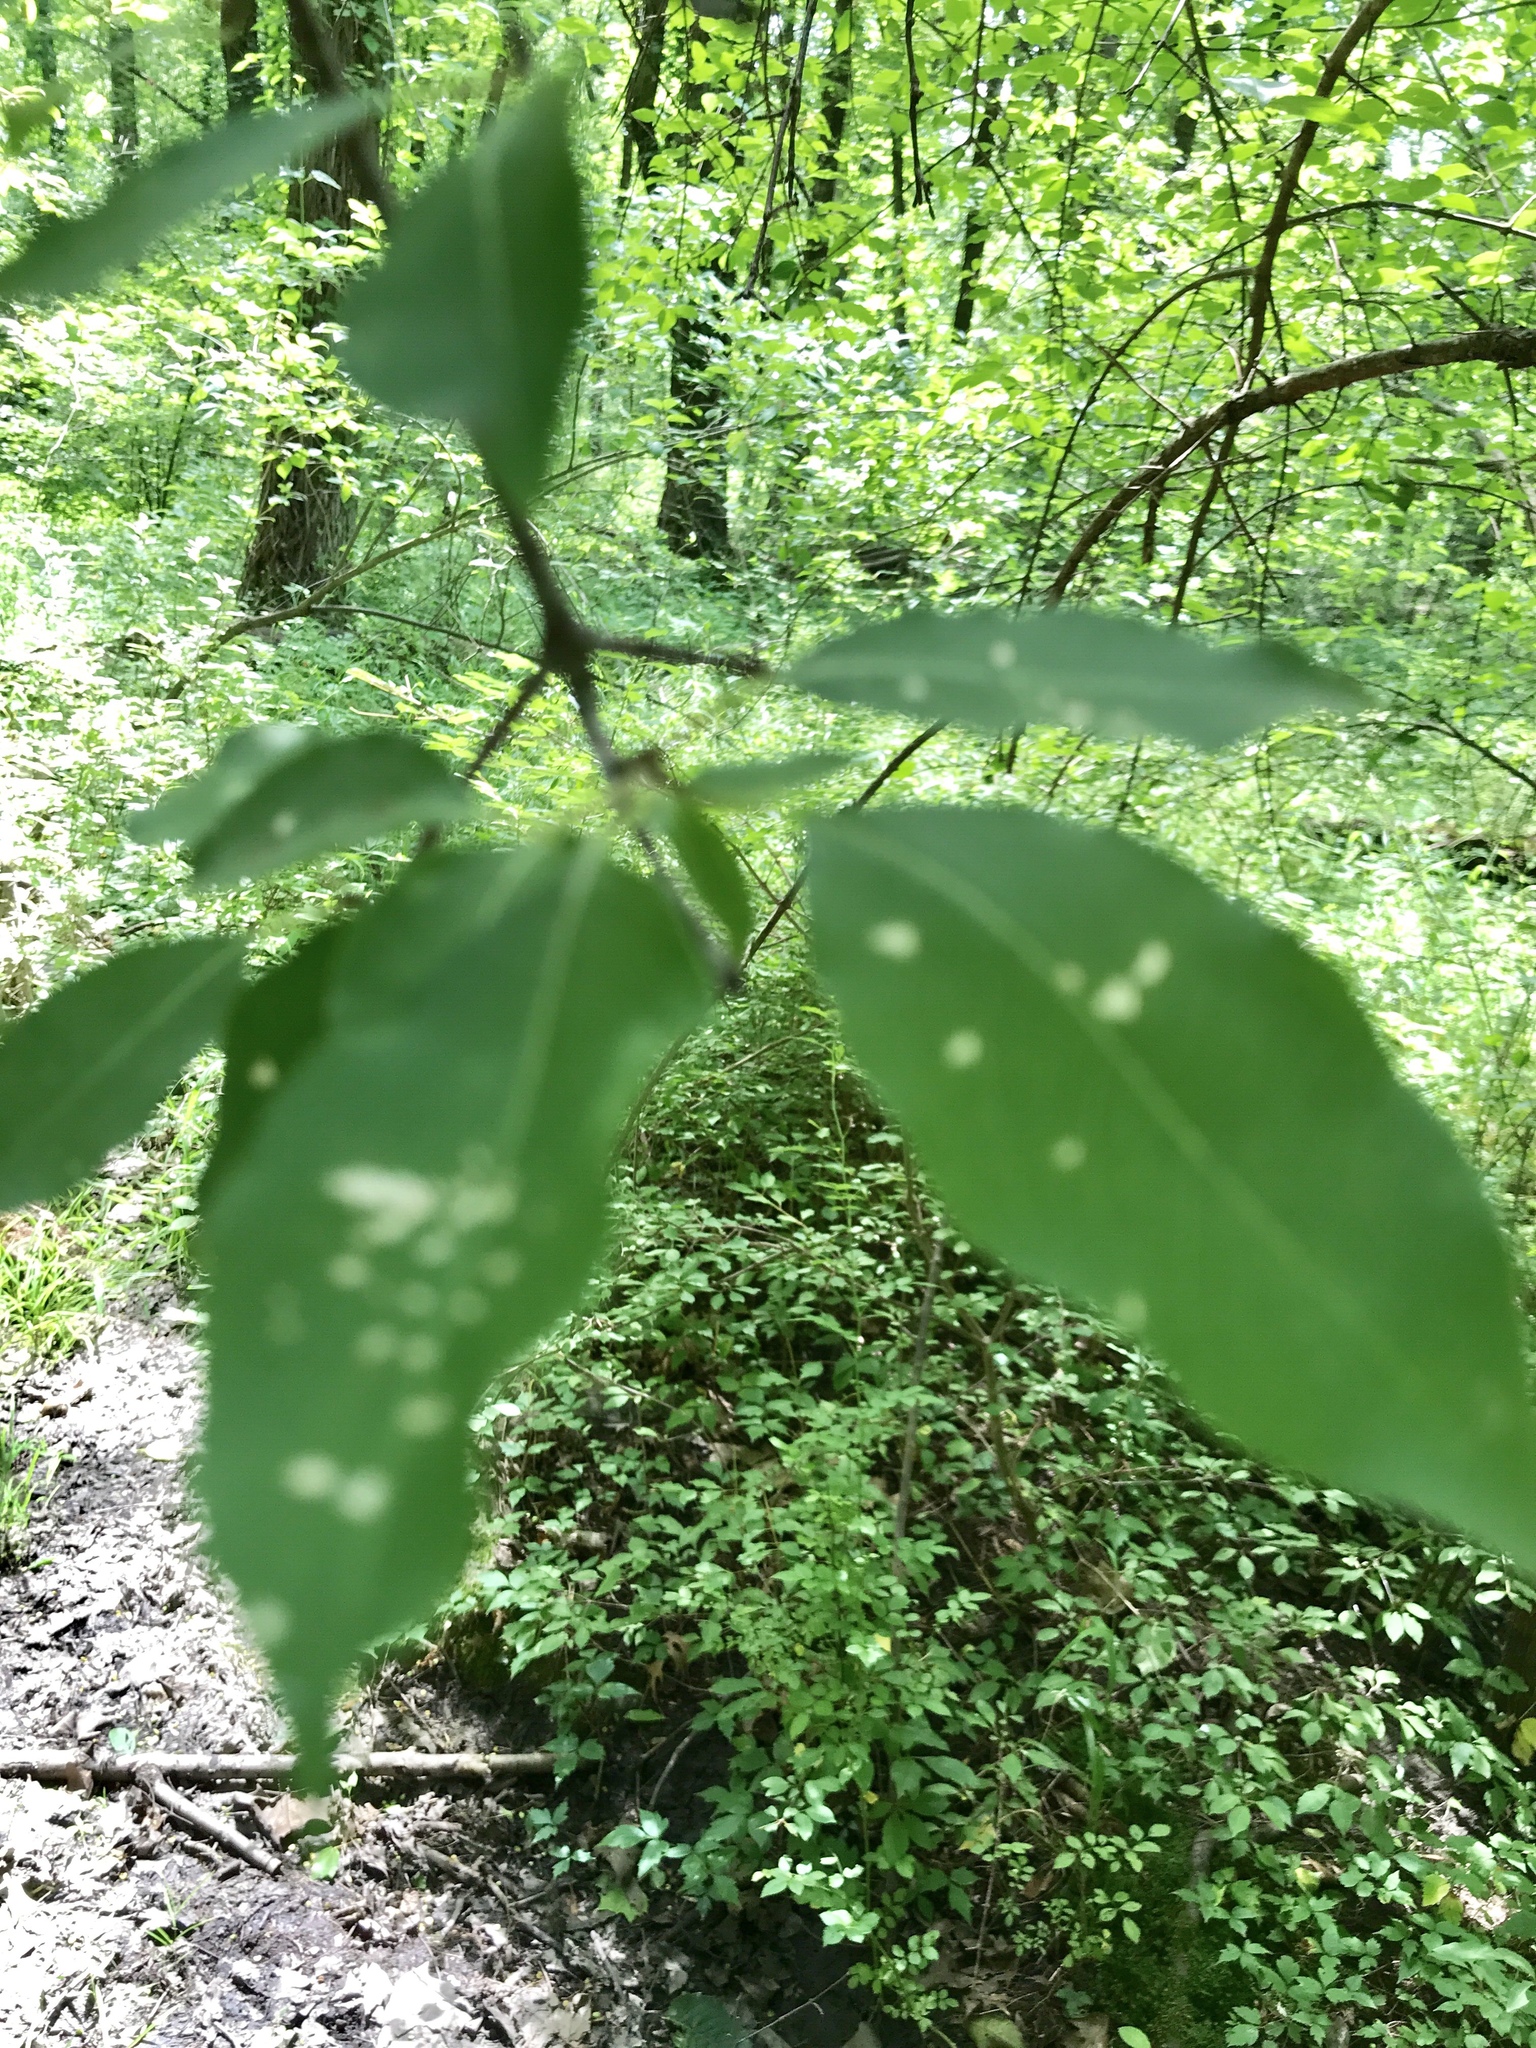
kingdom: Plantae
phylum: Tracheophyta
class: Magnoliopsida
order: Dipsacales
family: Viburnaceae
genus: Viburnum
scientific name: Viburnum prunifolium
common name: Black haw
